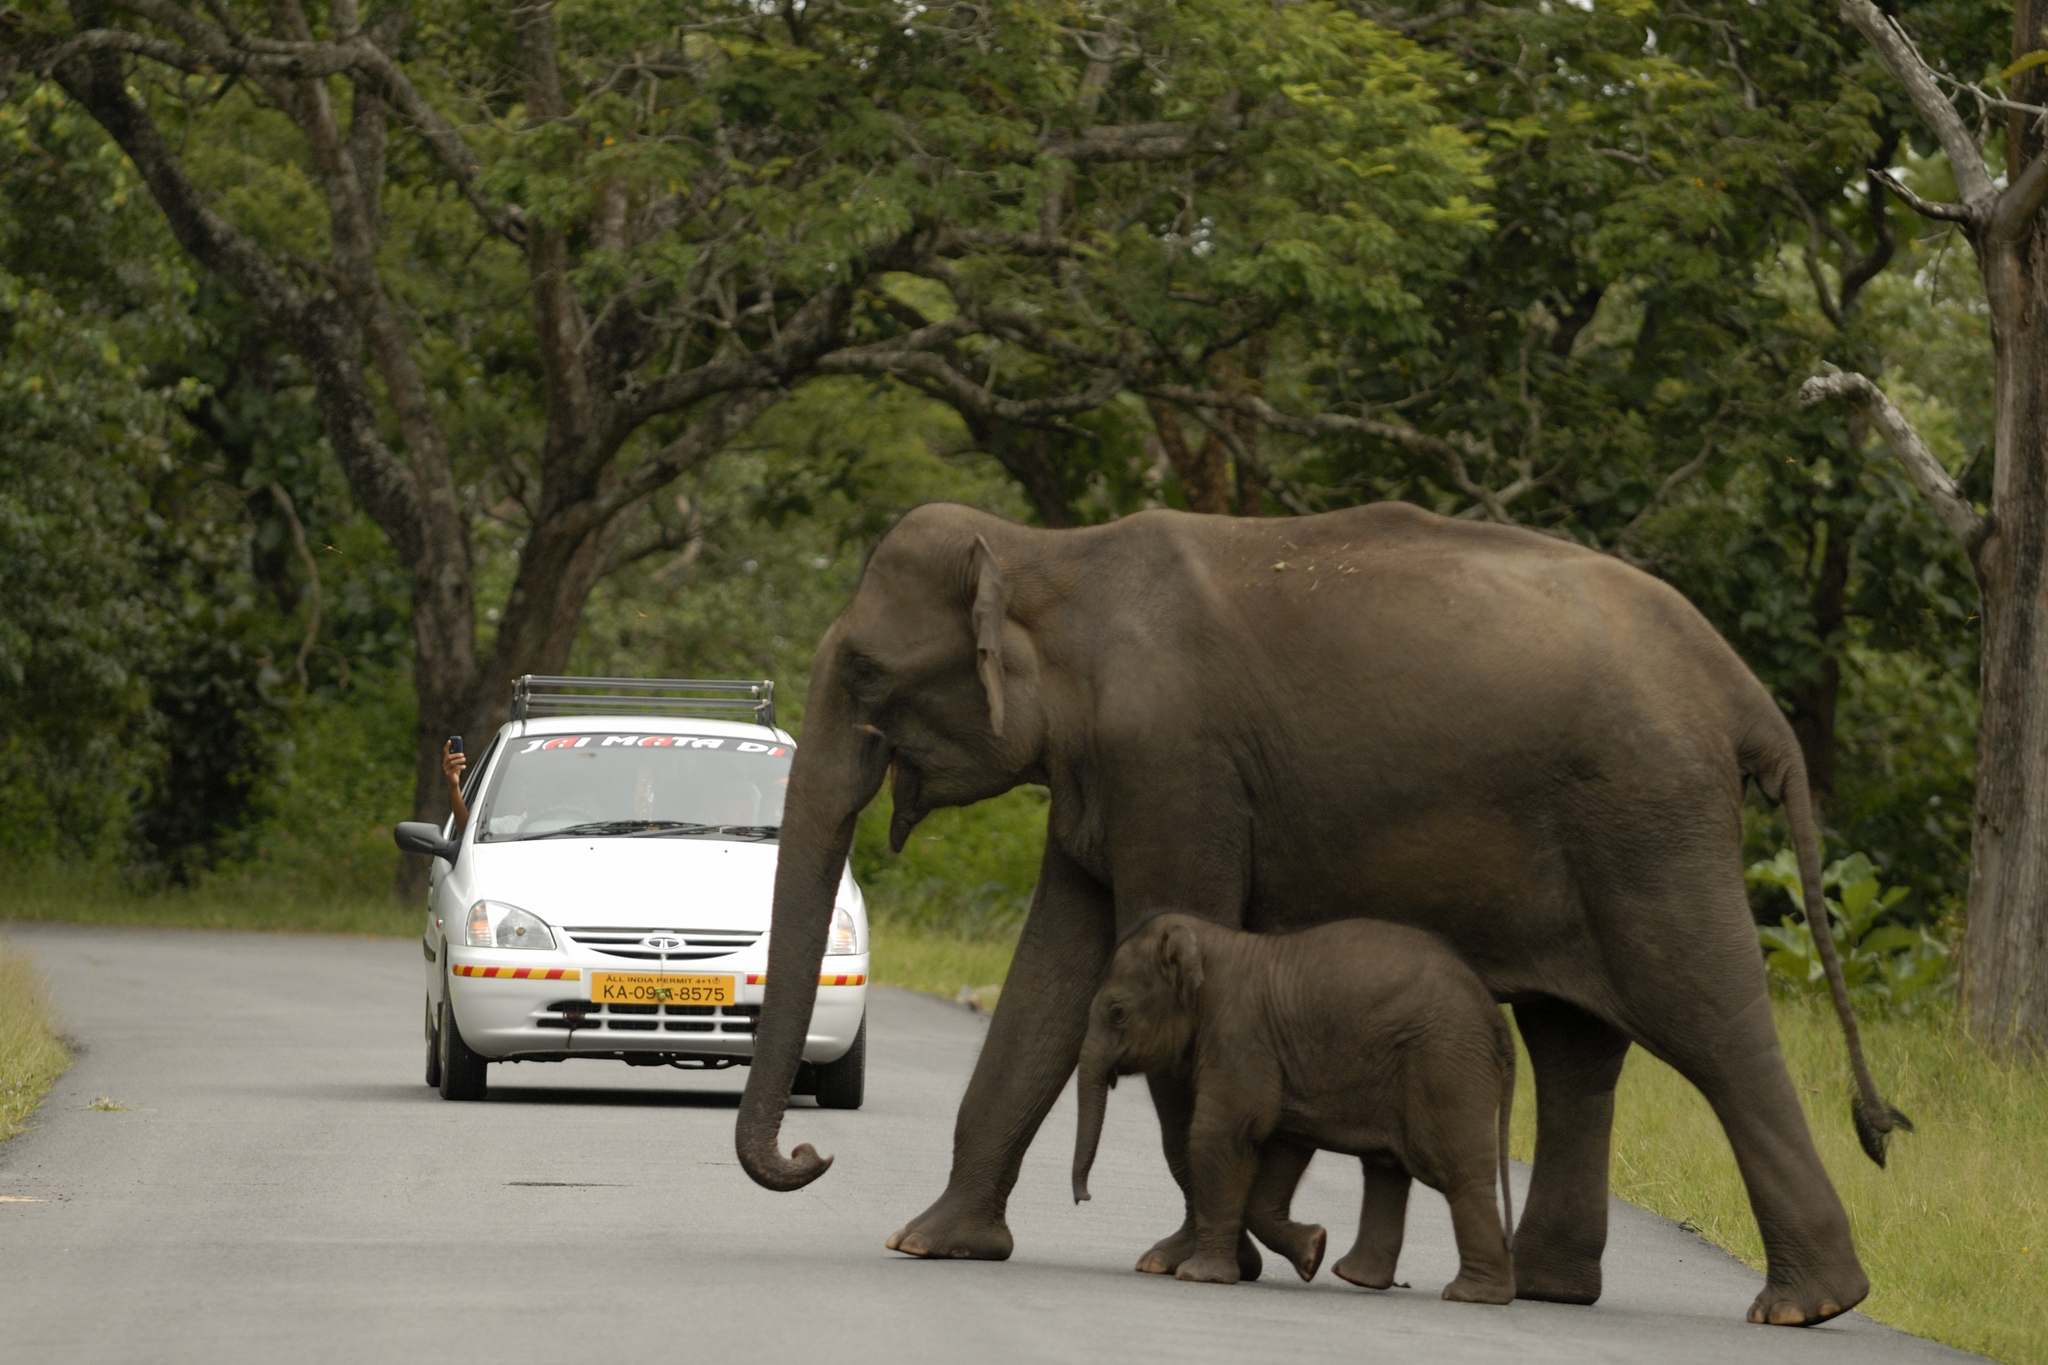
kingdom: Animalia
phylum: Chordata
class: Mammalia
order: Proboscidea
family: Elephantidae
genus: Elephas
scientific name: Elephas maximus
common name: Asian elephant
